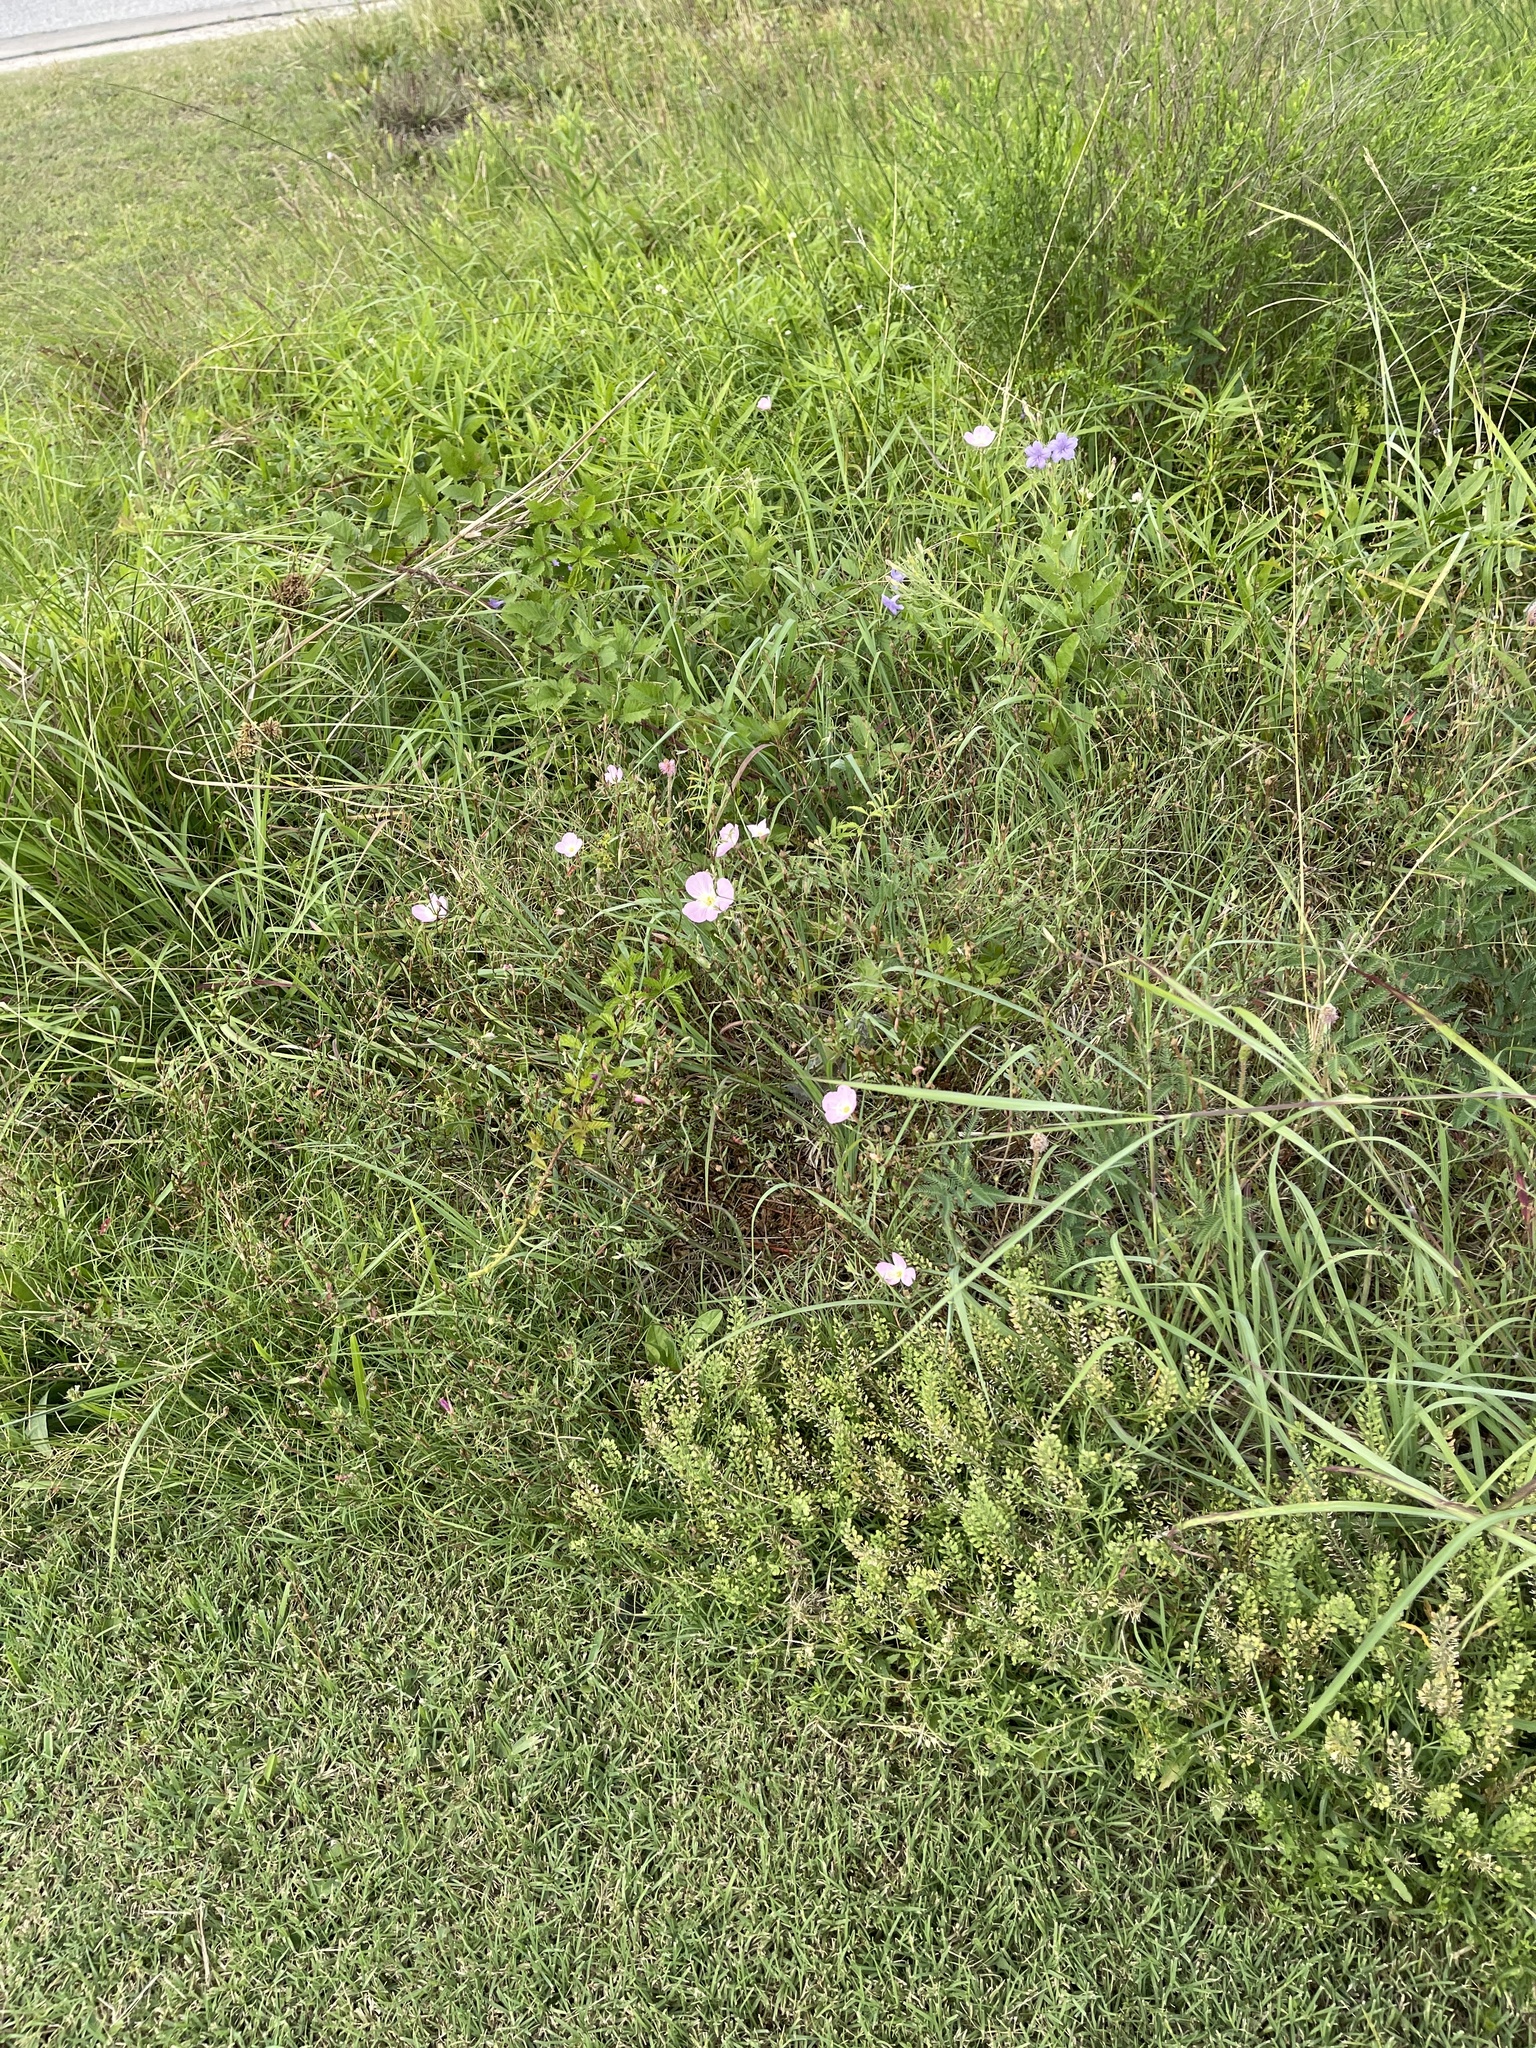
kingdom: Plantae
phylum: Tracheophyta
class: Magnoliopsida
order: Myrtales
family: Onagraceae
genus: Oenothera
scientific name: Oenothera speciosa
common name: White evening-primrose
